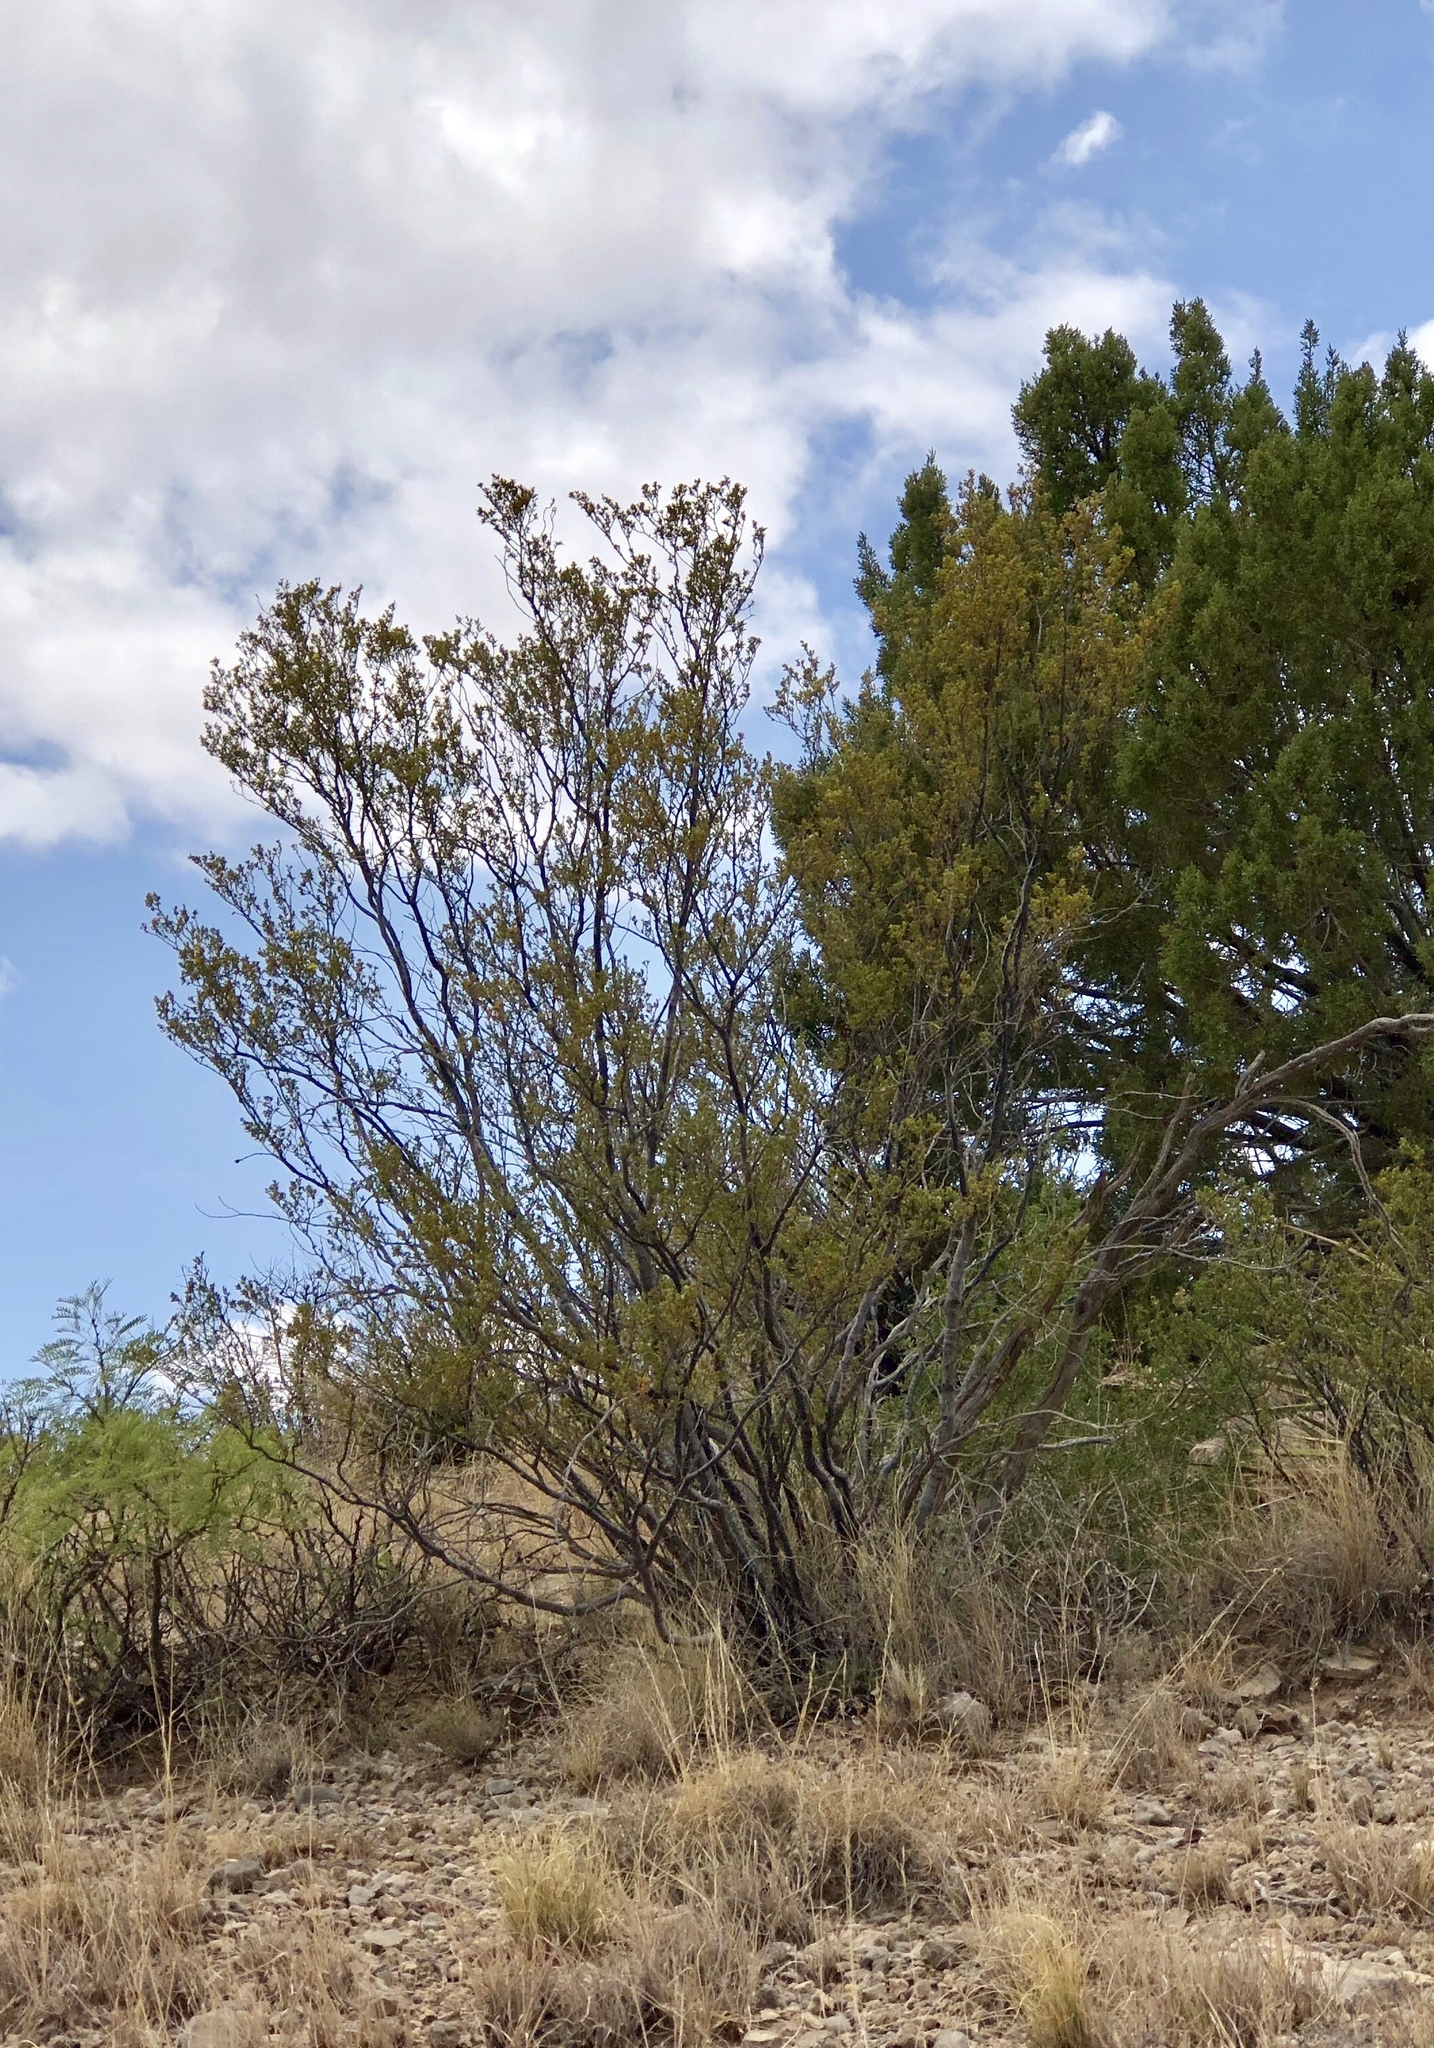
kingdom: Plantae
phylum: Tracheophyta
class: Magnoliopsida
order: Zygophyllales
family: Zygophyllaceae
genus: Larrea
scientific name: Larrea tridentata
